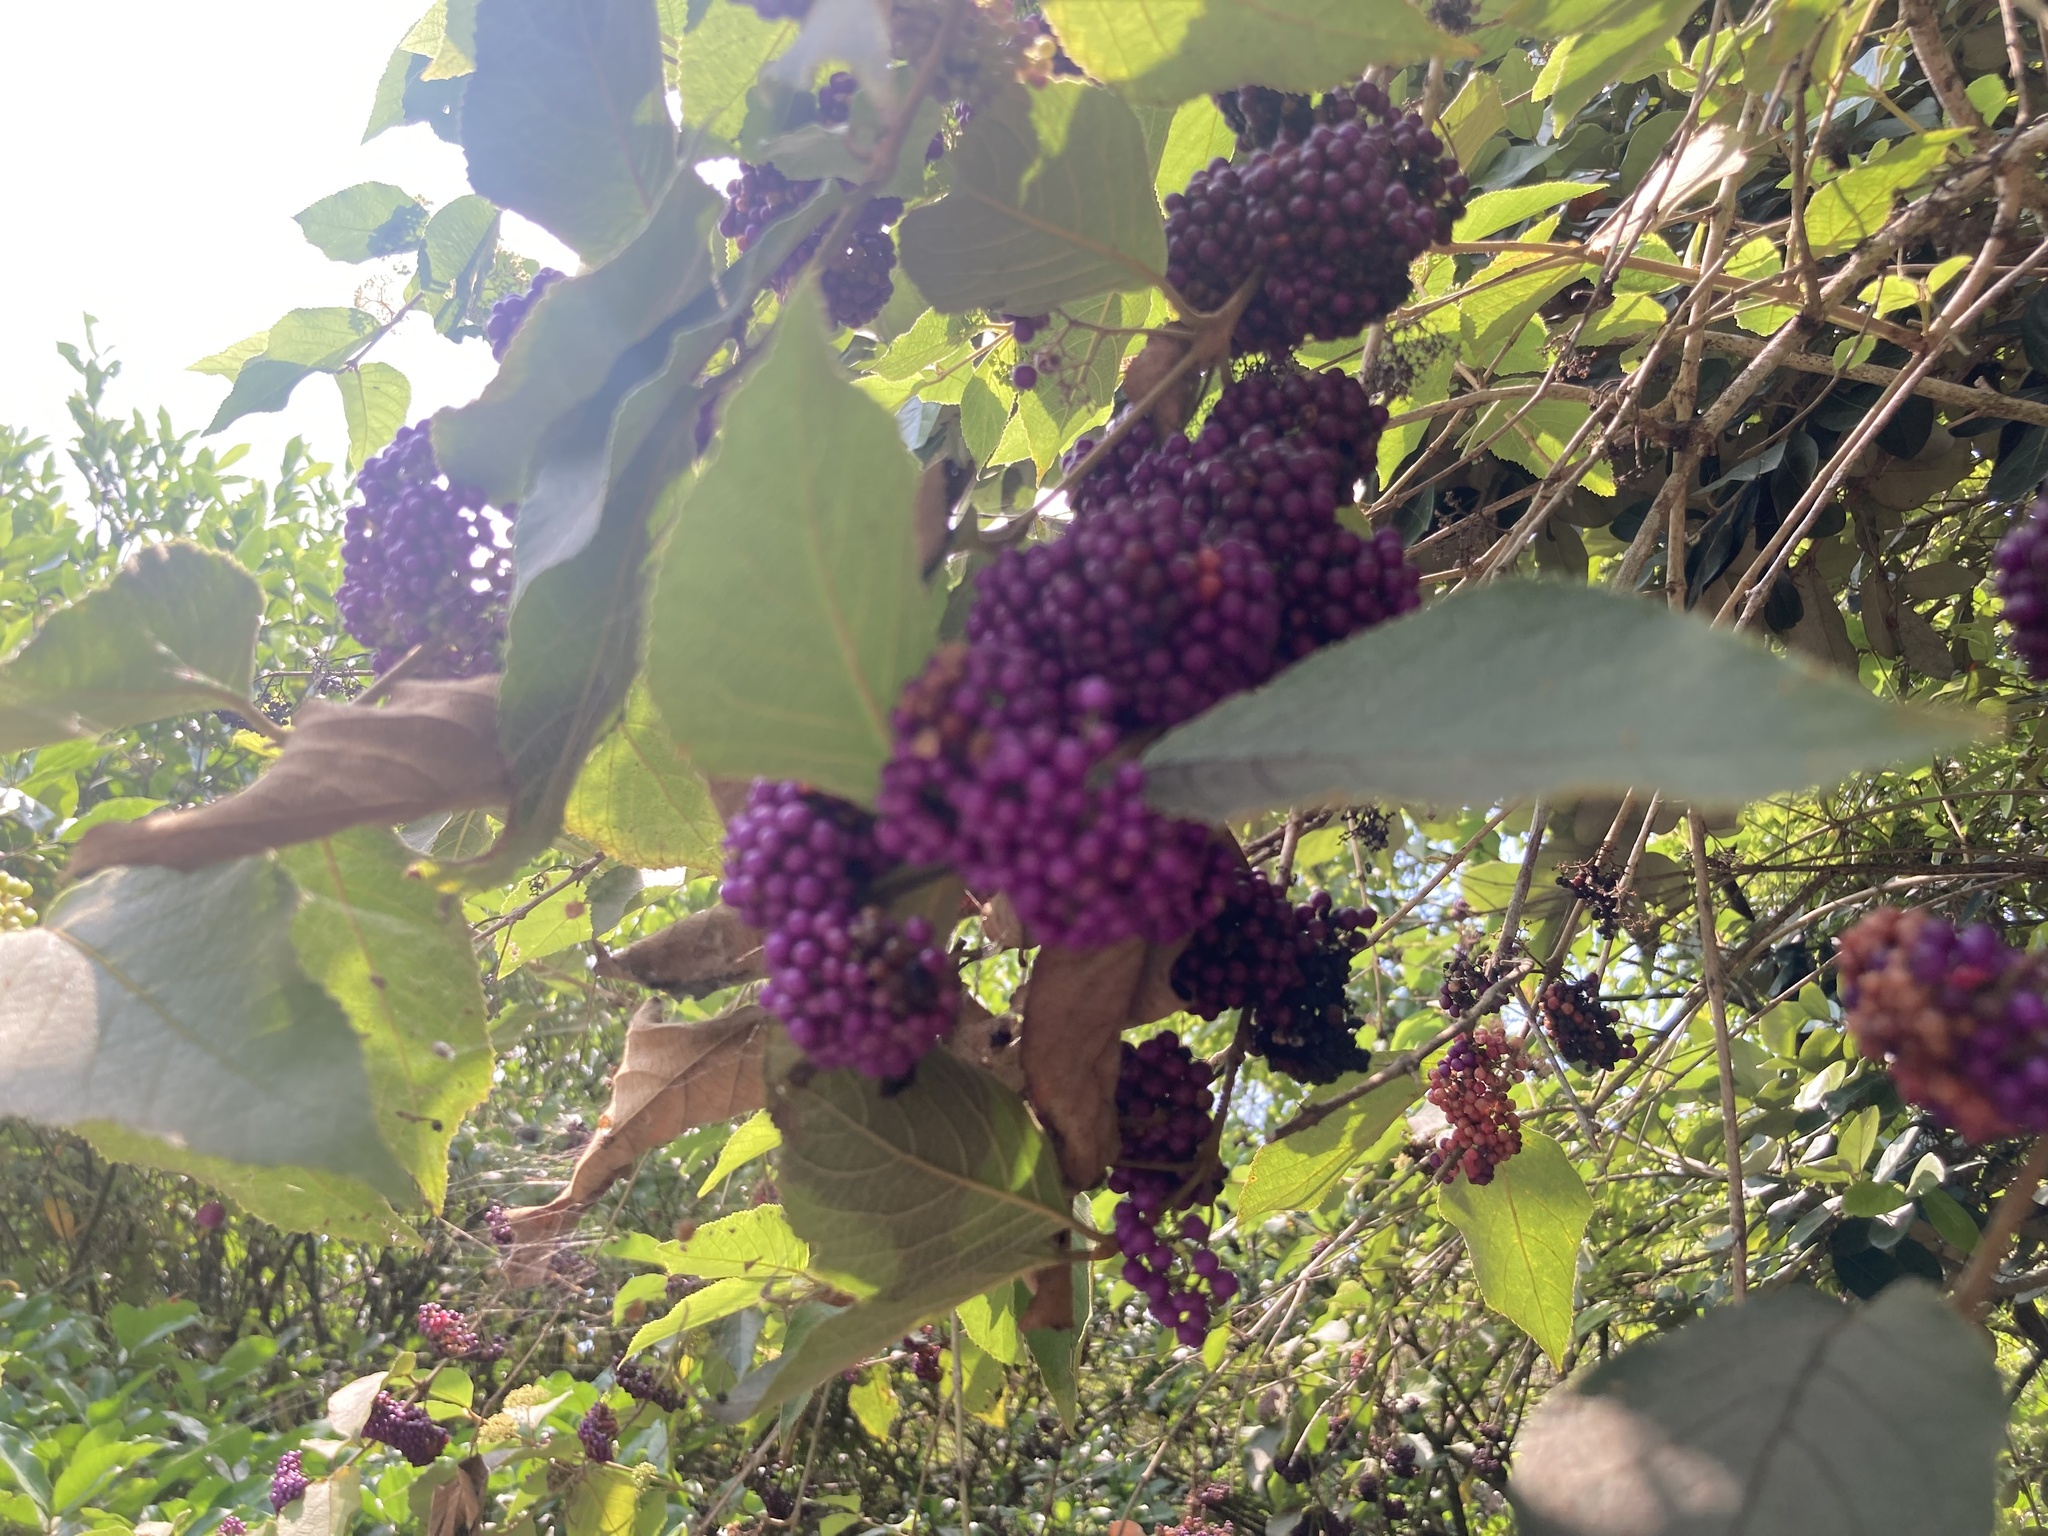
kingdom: Plantae
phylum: Tracheophyta
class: Magnoliopsida
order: Lamiales
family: Lamiaceae
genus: Callicarpa
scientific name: Callicarpa pedunculata
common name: Velvetleaf
